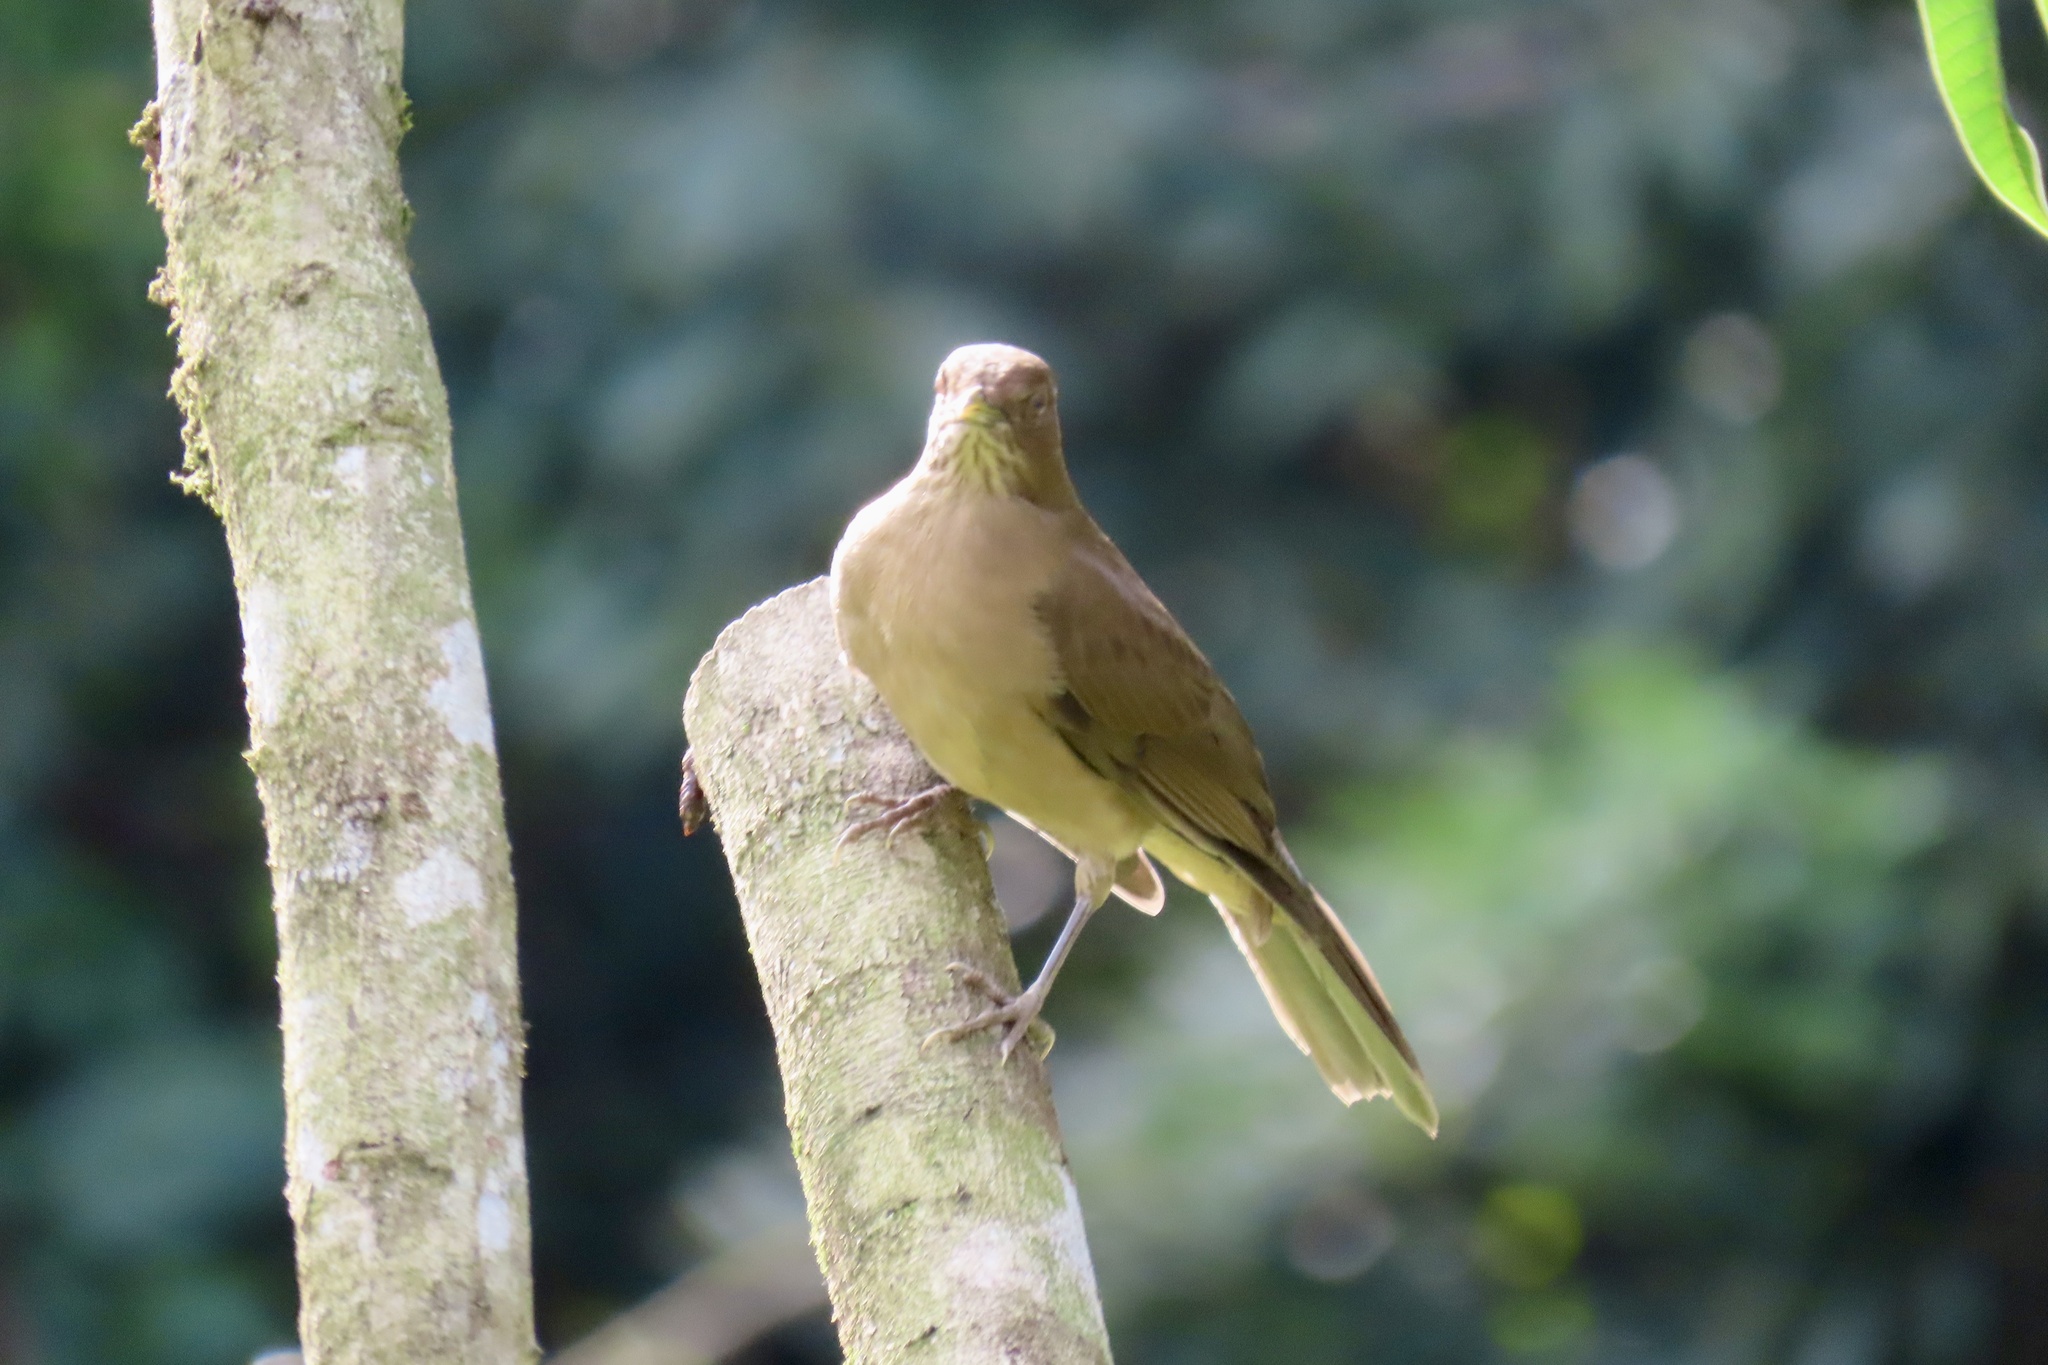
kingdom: Animalia
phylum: Chordata
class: Aves
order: Passeriformes
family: Turdidae
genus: Turdus
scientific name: Turdus grayi
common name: Clay-colored thrush
